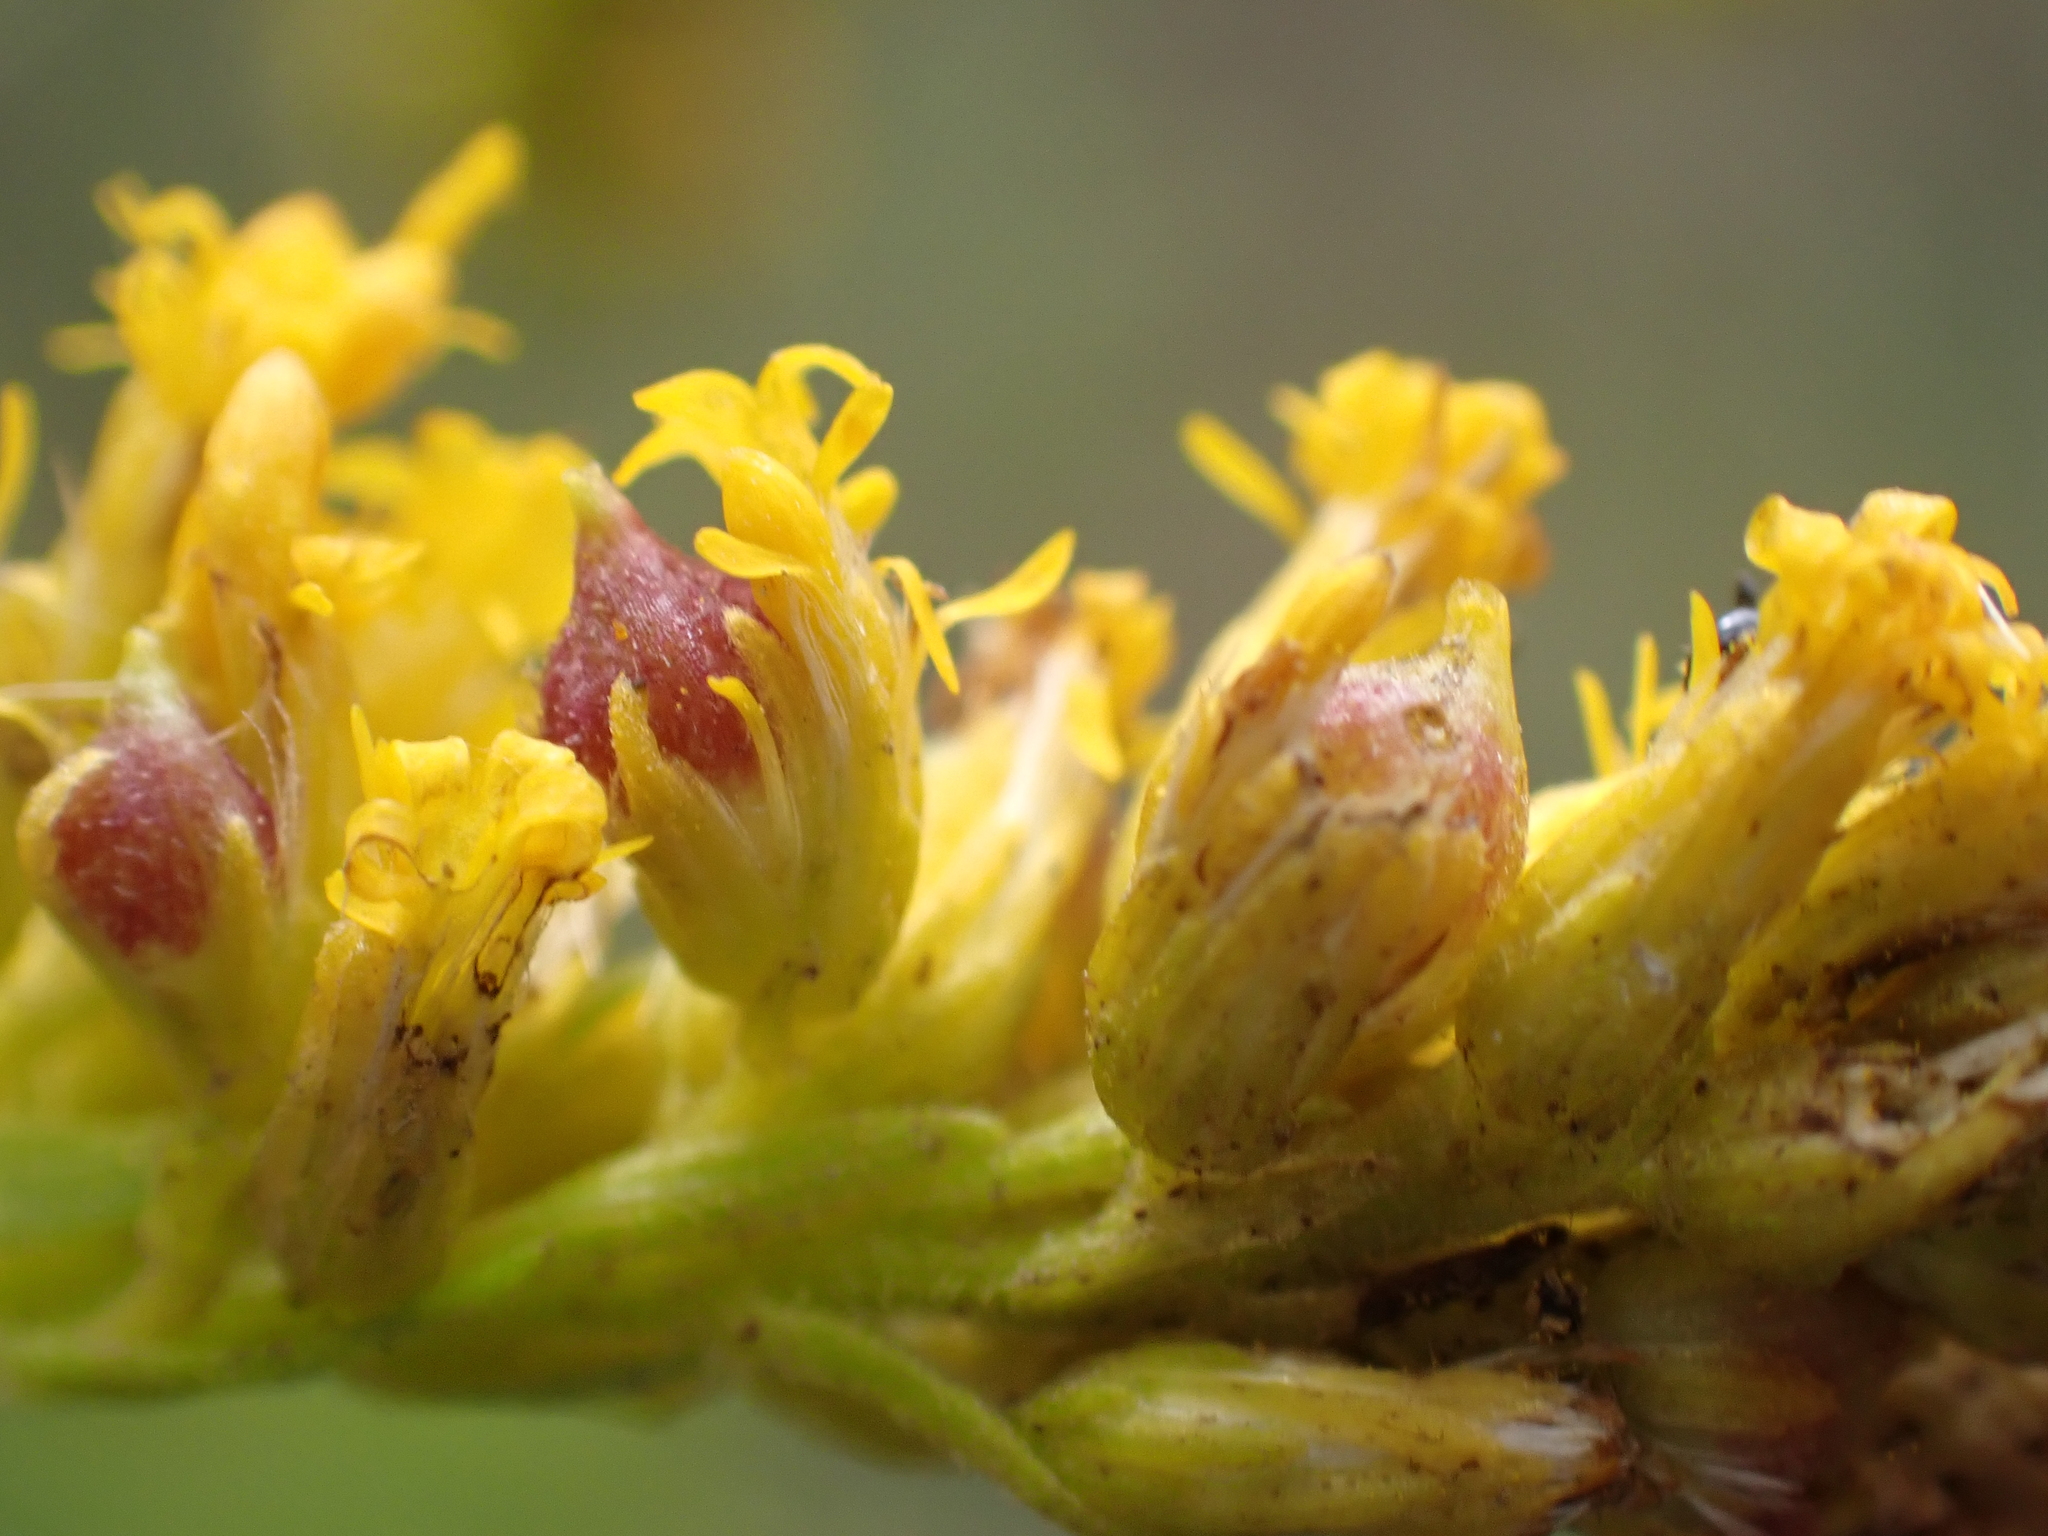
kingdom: Animalia
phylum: Arthropoda
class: Insecta
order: Diptera
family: Cecidomyiidae
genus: Schizomyia
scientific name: Schizomyia racemicola
